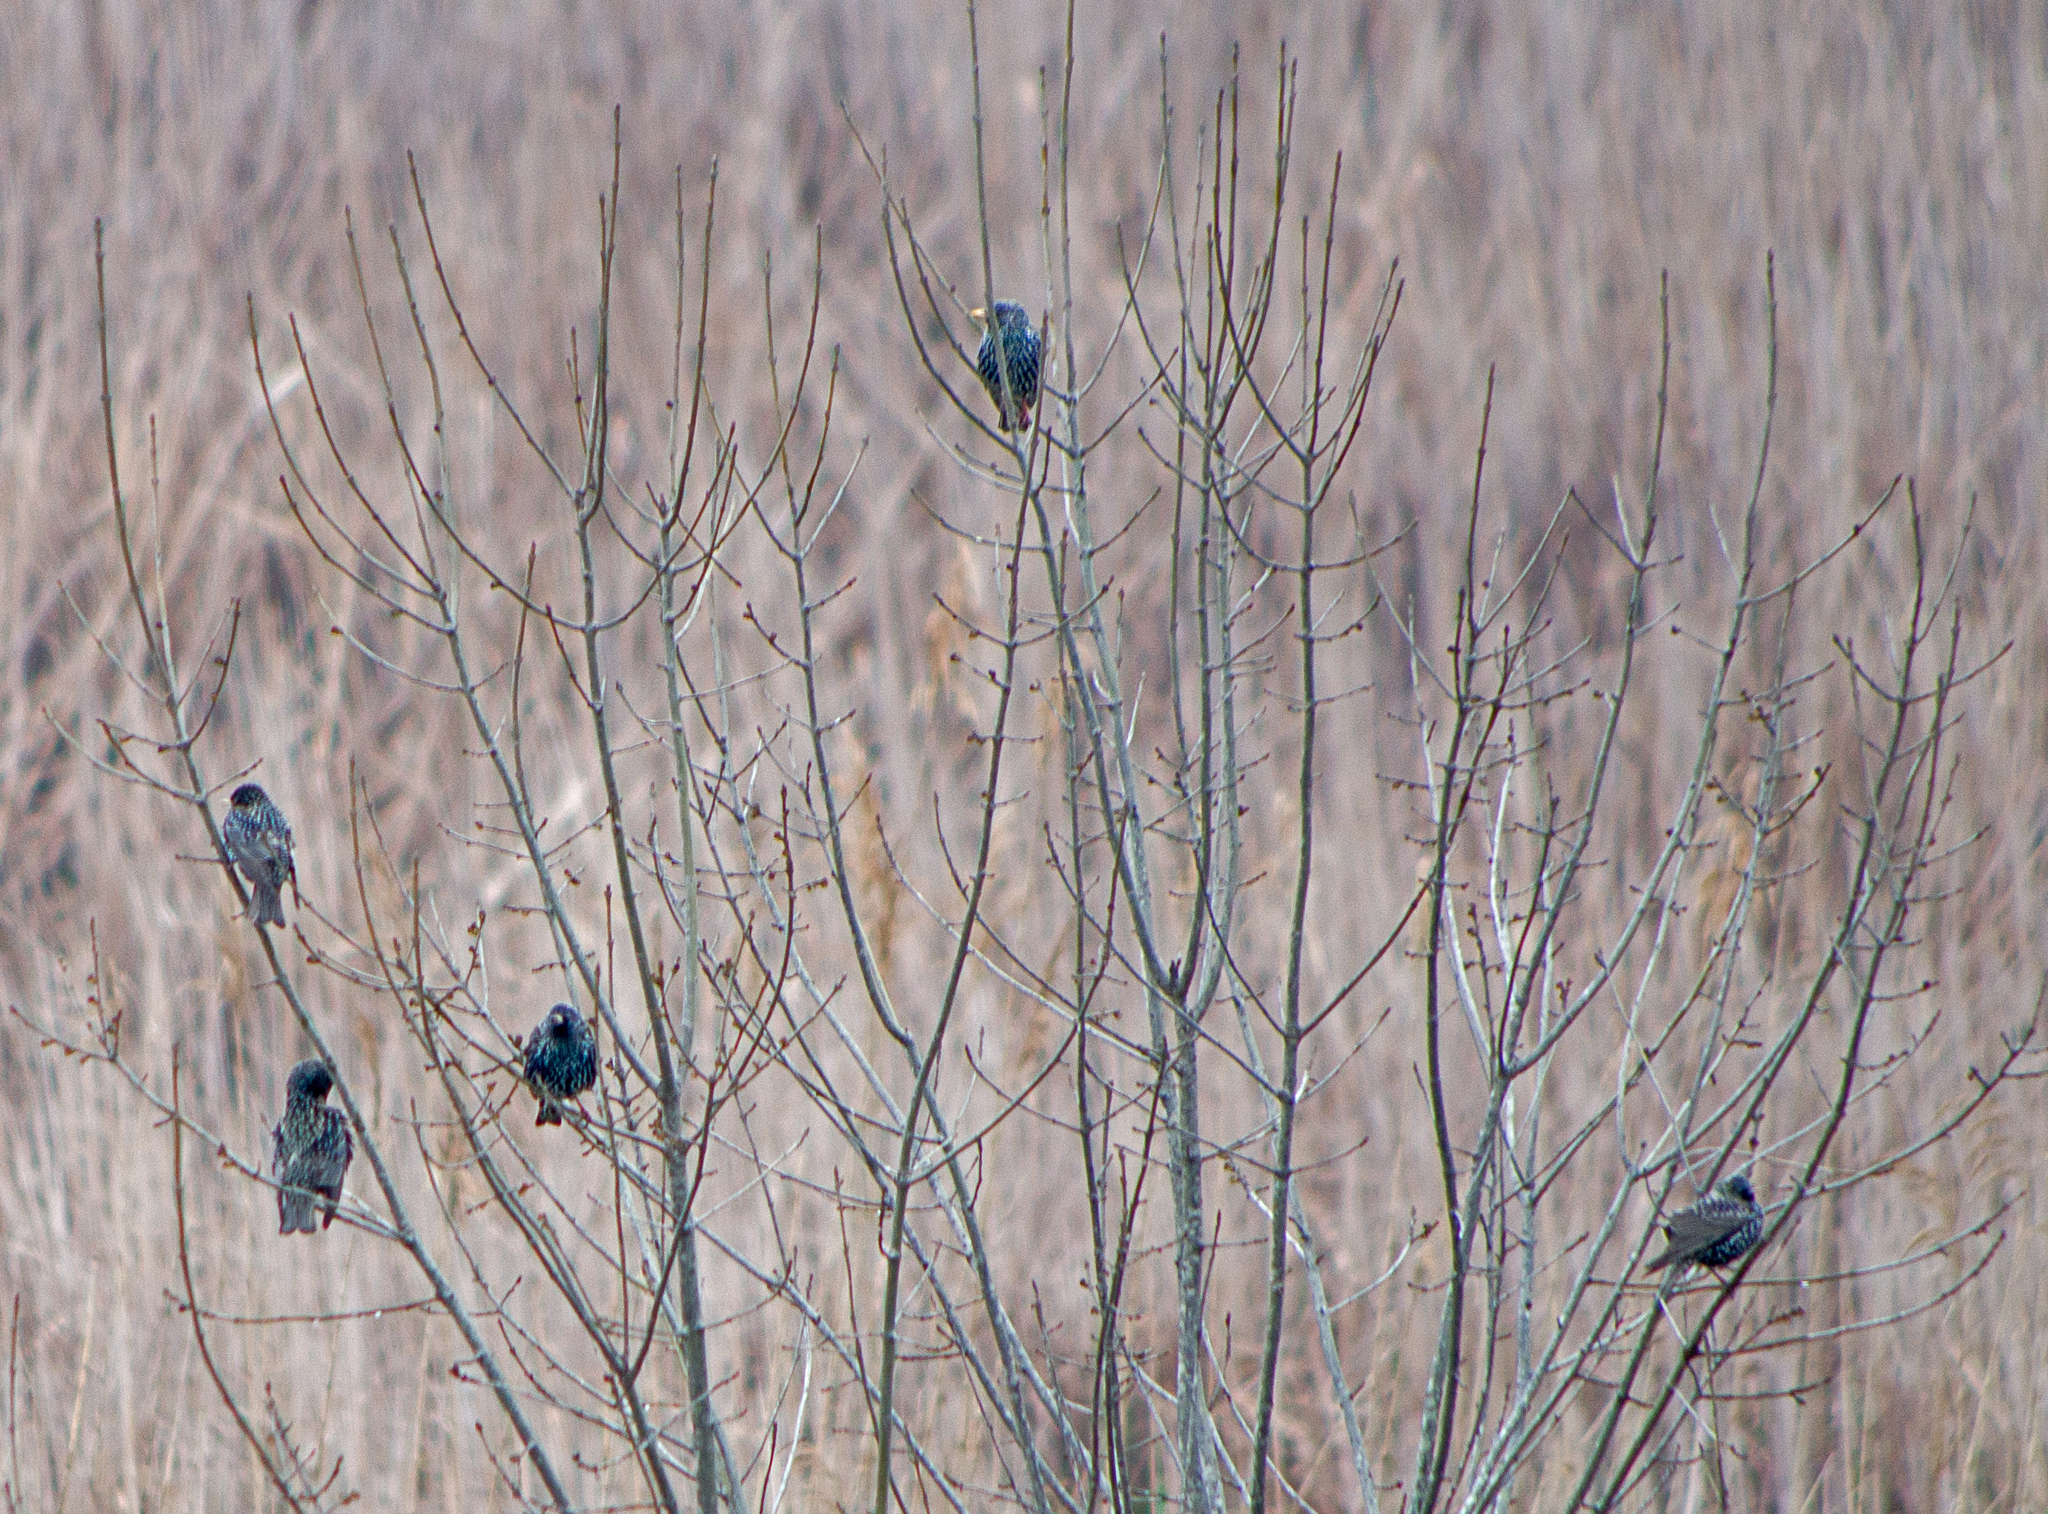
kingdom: Animalia
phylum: Chordata
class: Aves
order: Passeriformes
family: Sturnidae
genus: Sturnus
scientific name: Sturnus vulgaris
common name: Common starling
